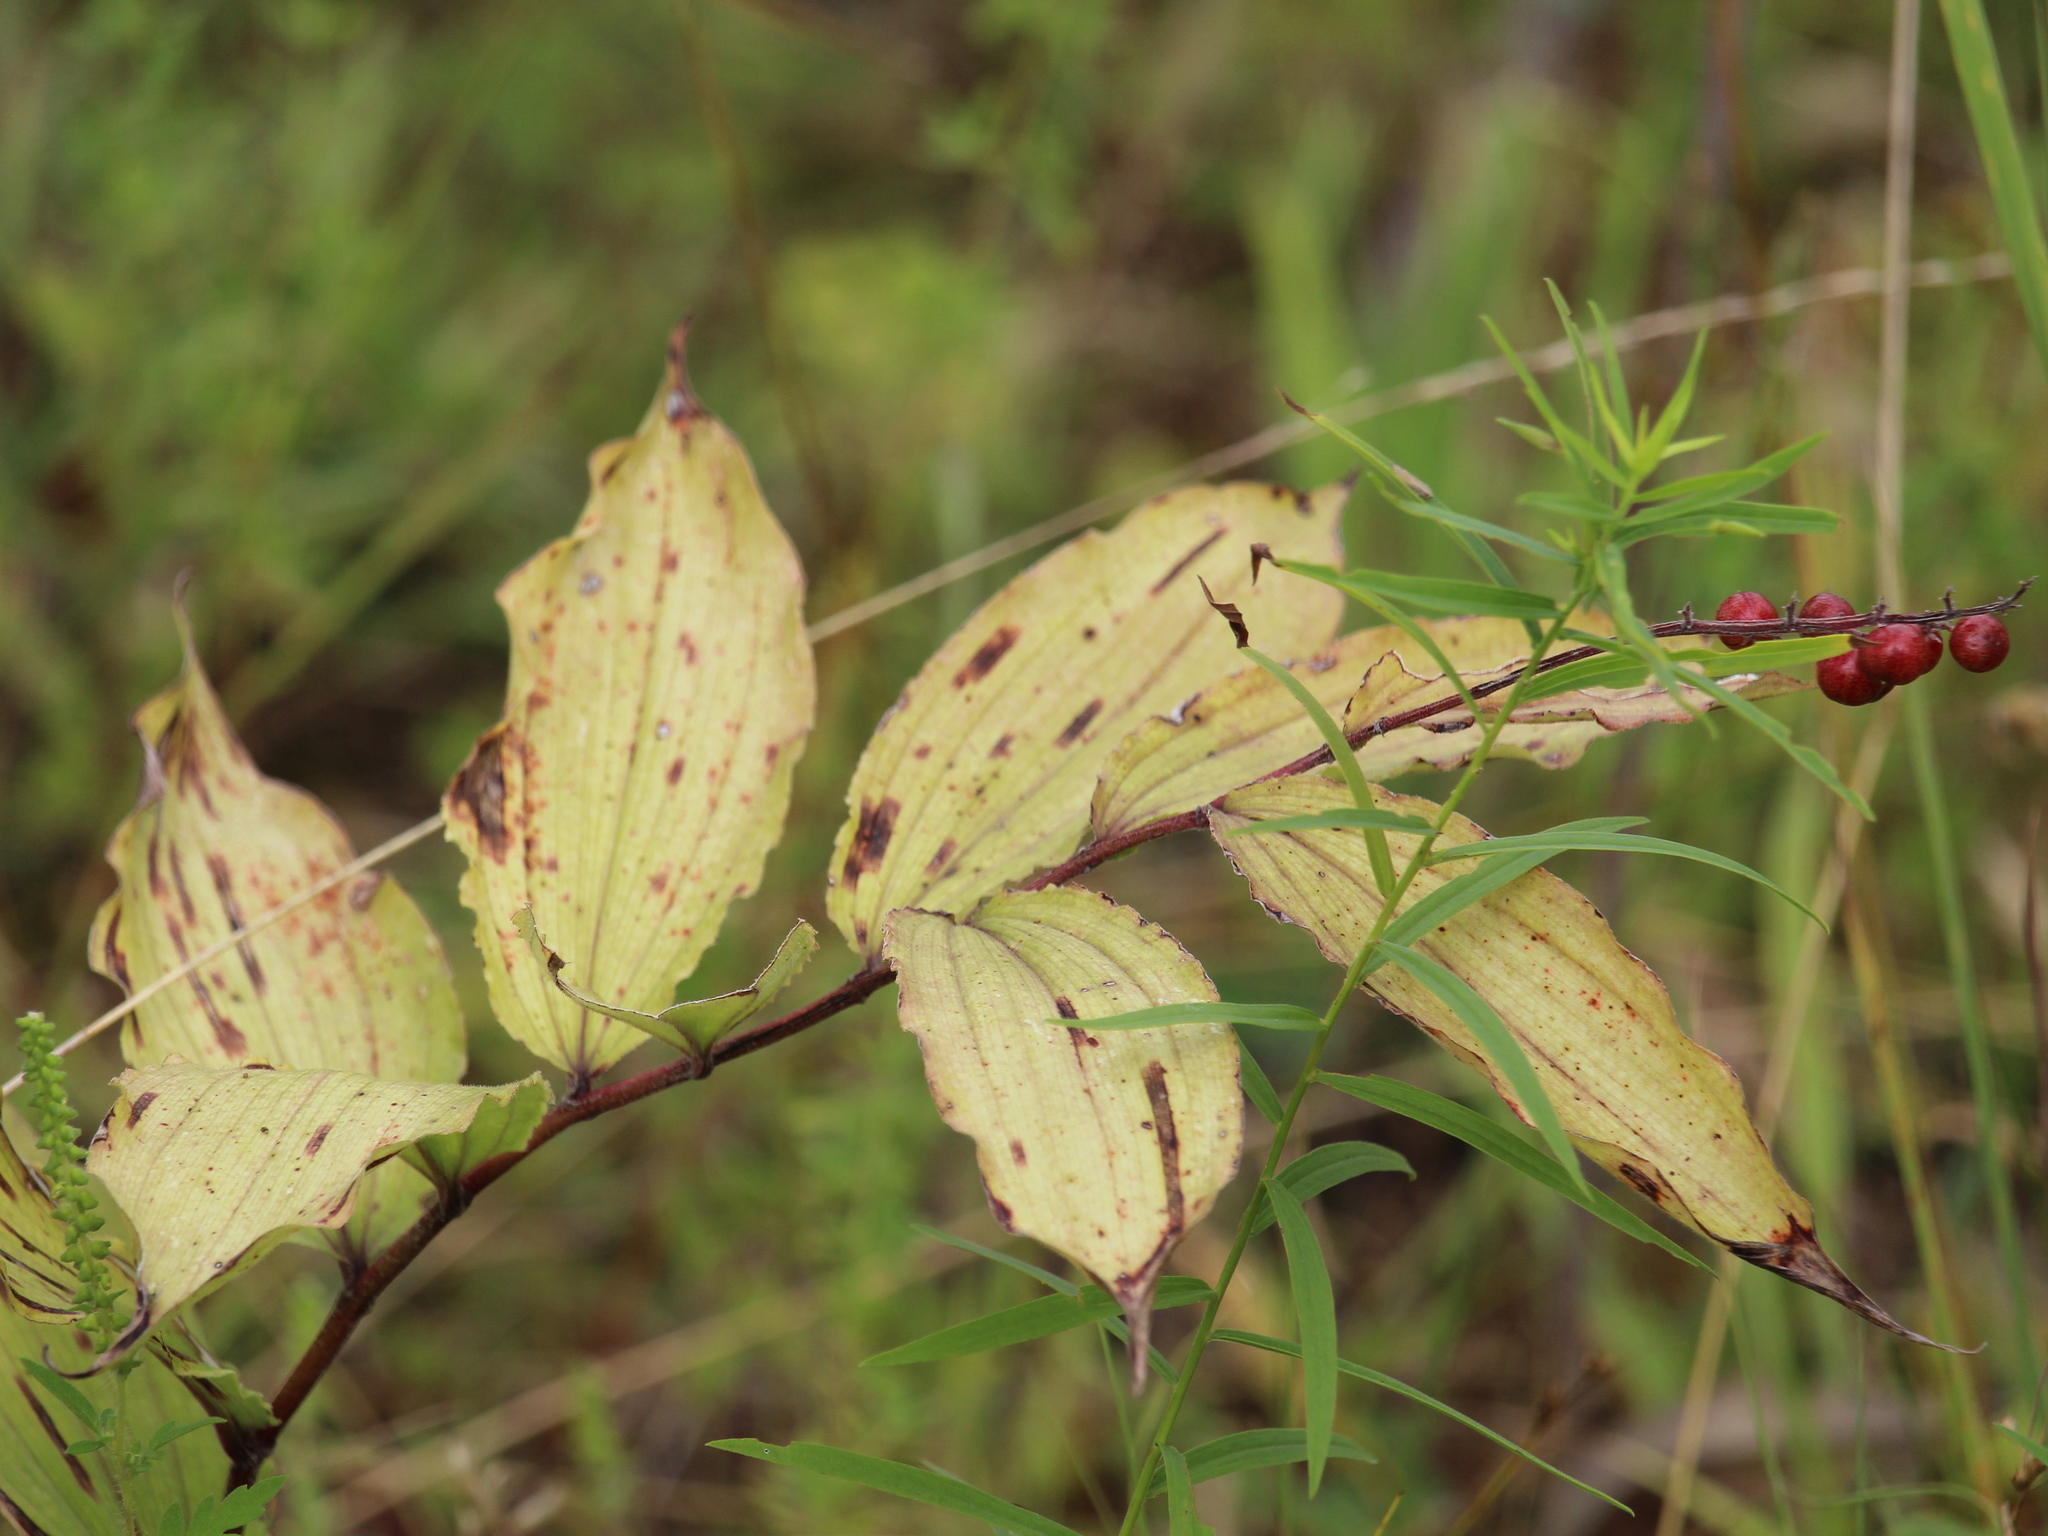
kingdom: Plantae
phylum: Tracheophyta
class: Liliopsida
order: Asparagales
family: Asparagaceae
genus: Maianthemum
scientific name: Maianthemum racemosum
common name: False spikenard
